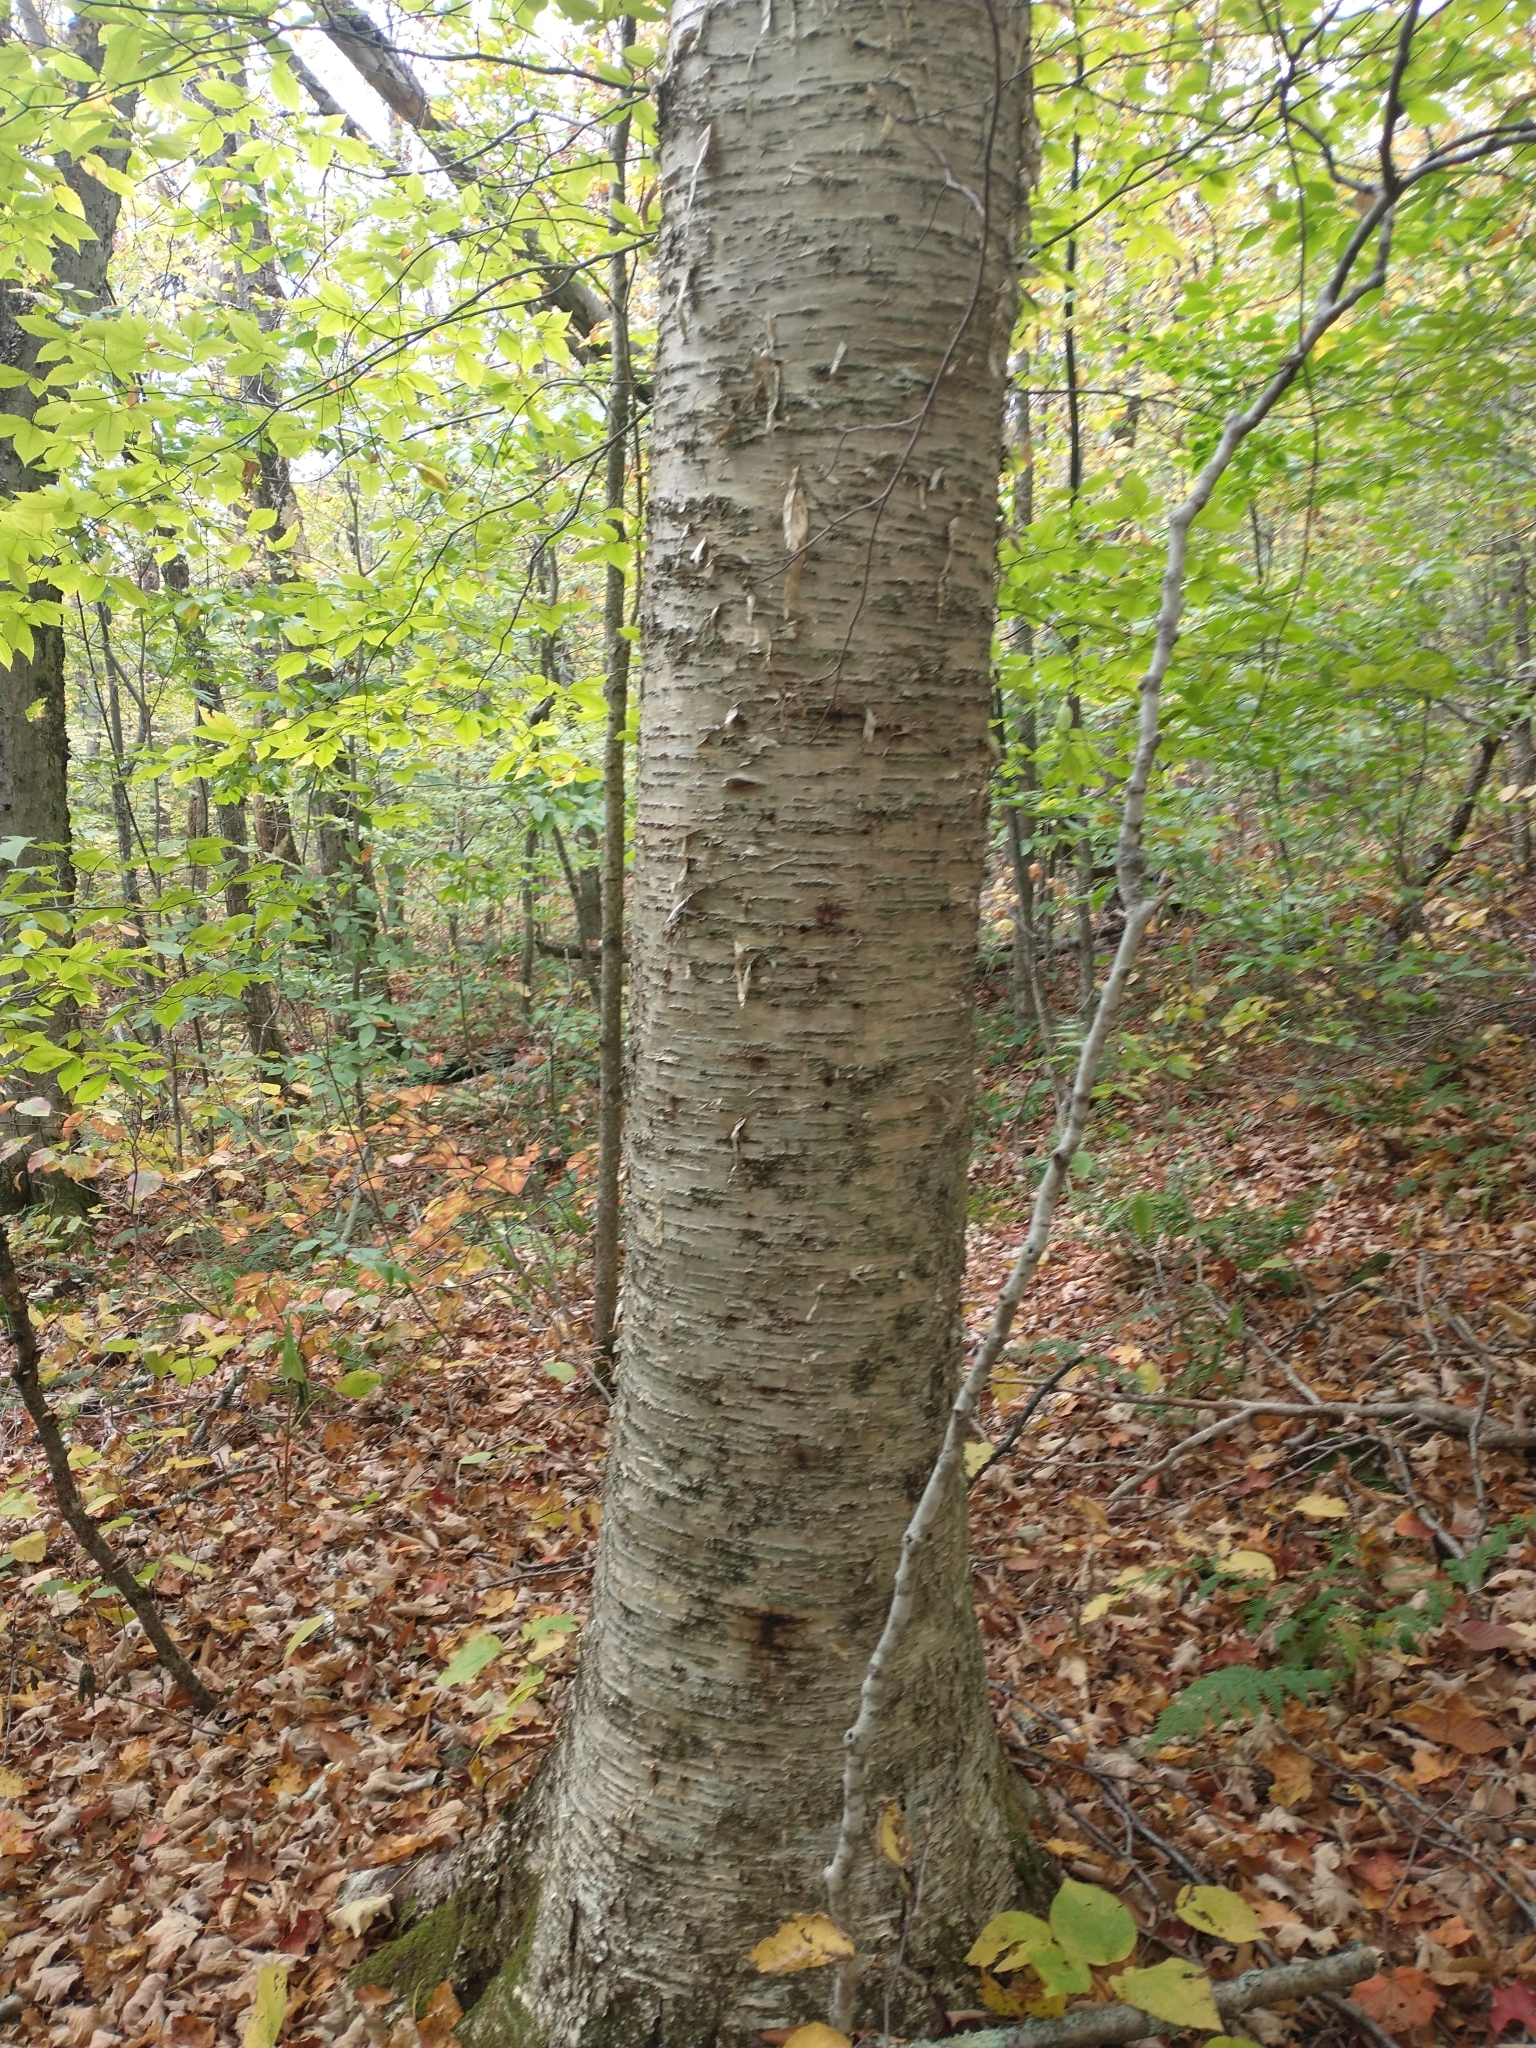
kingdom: Plantae
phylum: Tracheophyta
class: Magnoliopsida
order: Fagales
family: Betulaceae
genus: Betula
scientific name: Betula alleghaniensis
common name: Yellow birch
